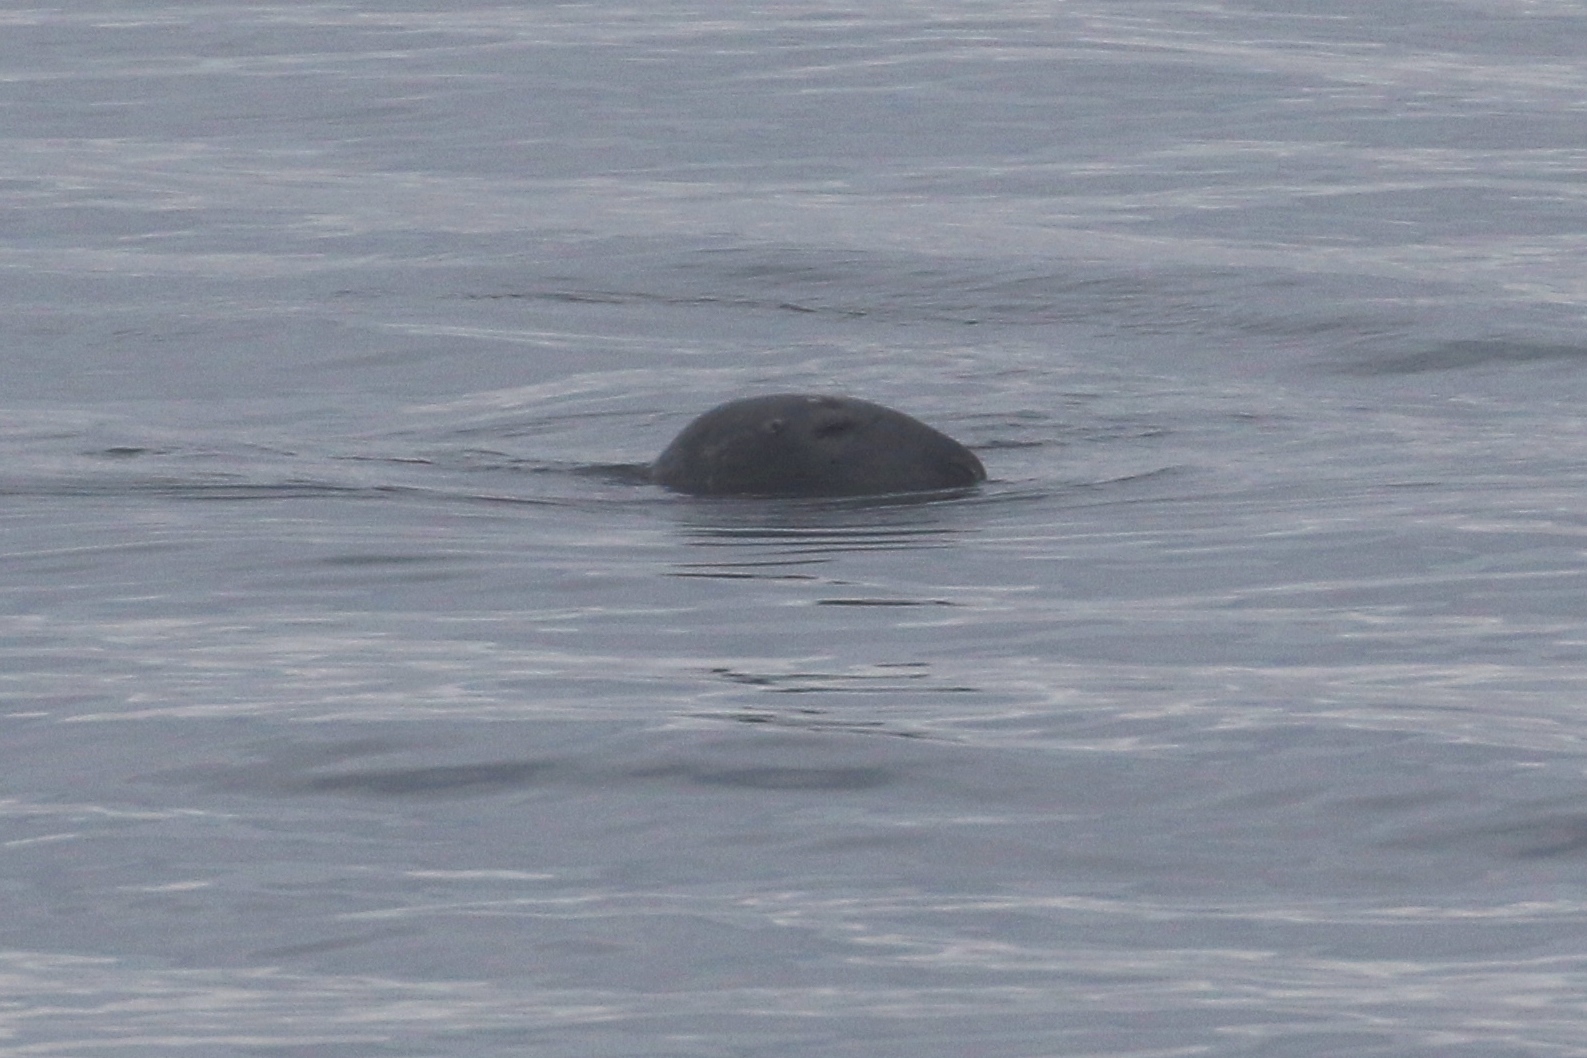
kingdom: Animalia
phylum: Chordata
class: Mammalia
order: Carnivora
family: Phocidae
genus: Halichoerus
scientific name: Halichoerus grypus
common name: Grey seal
